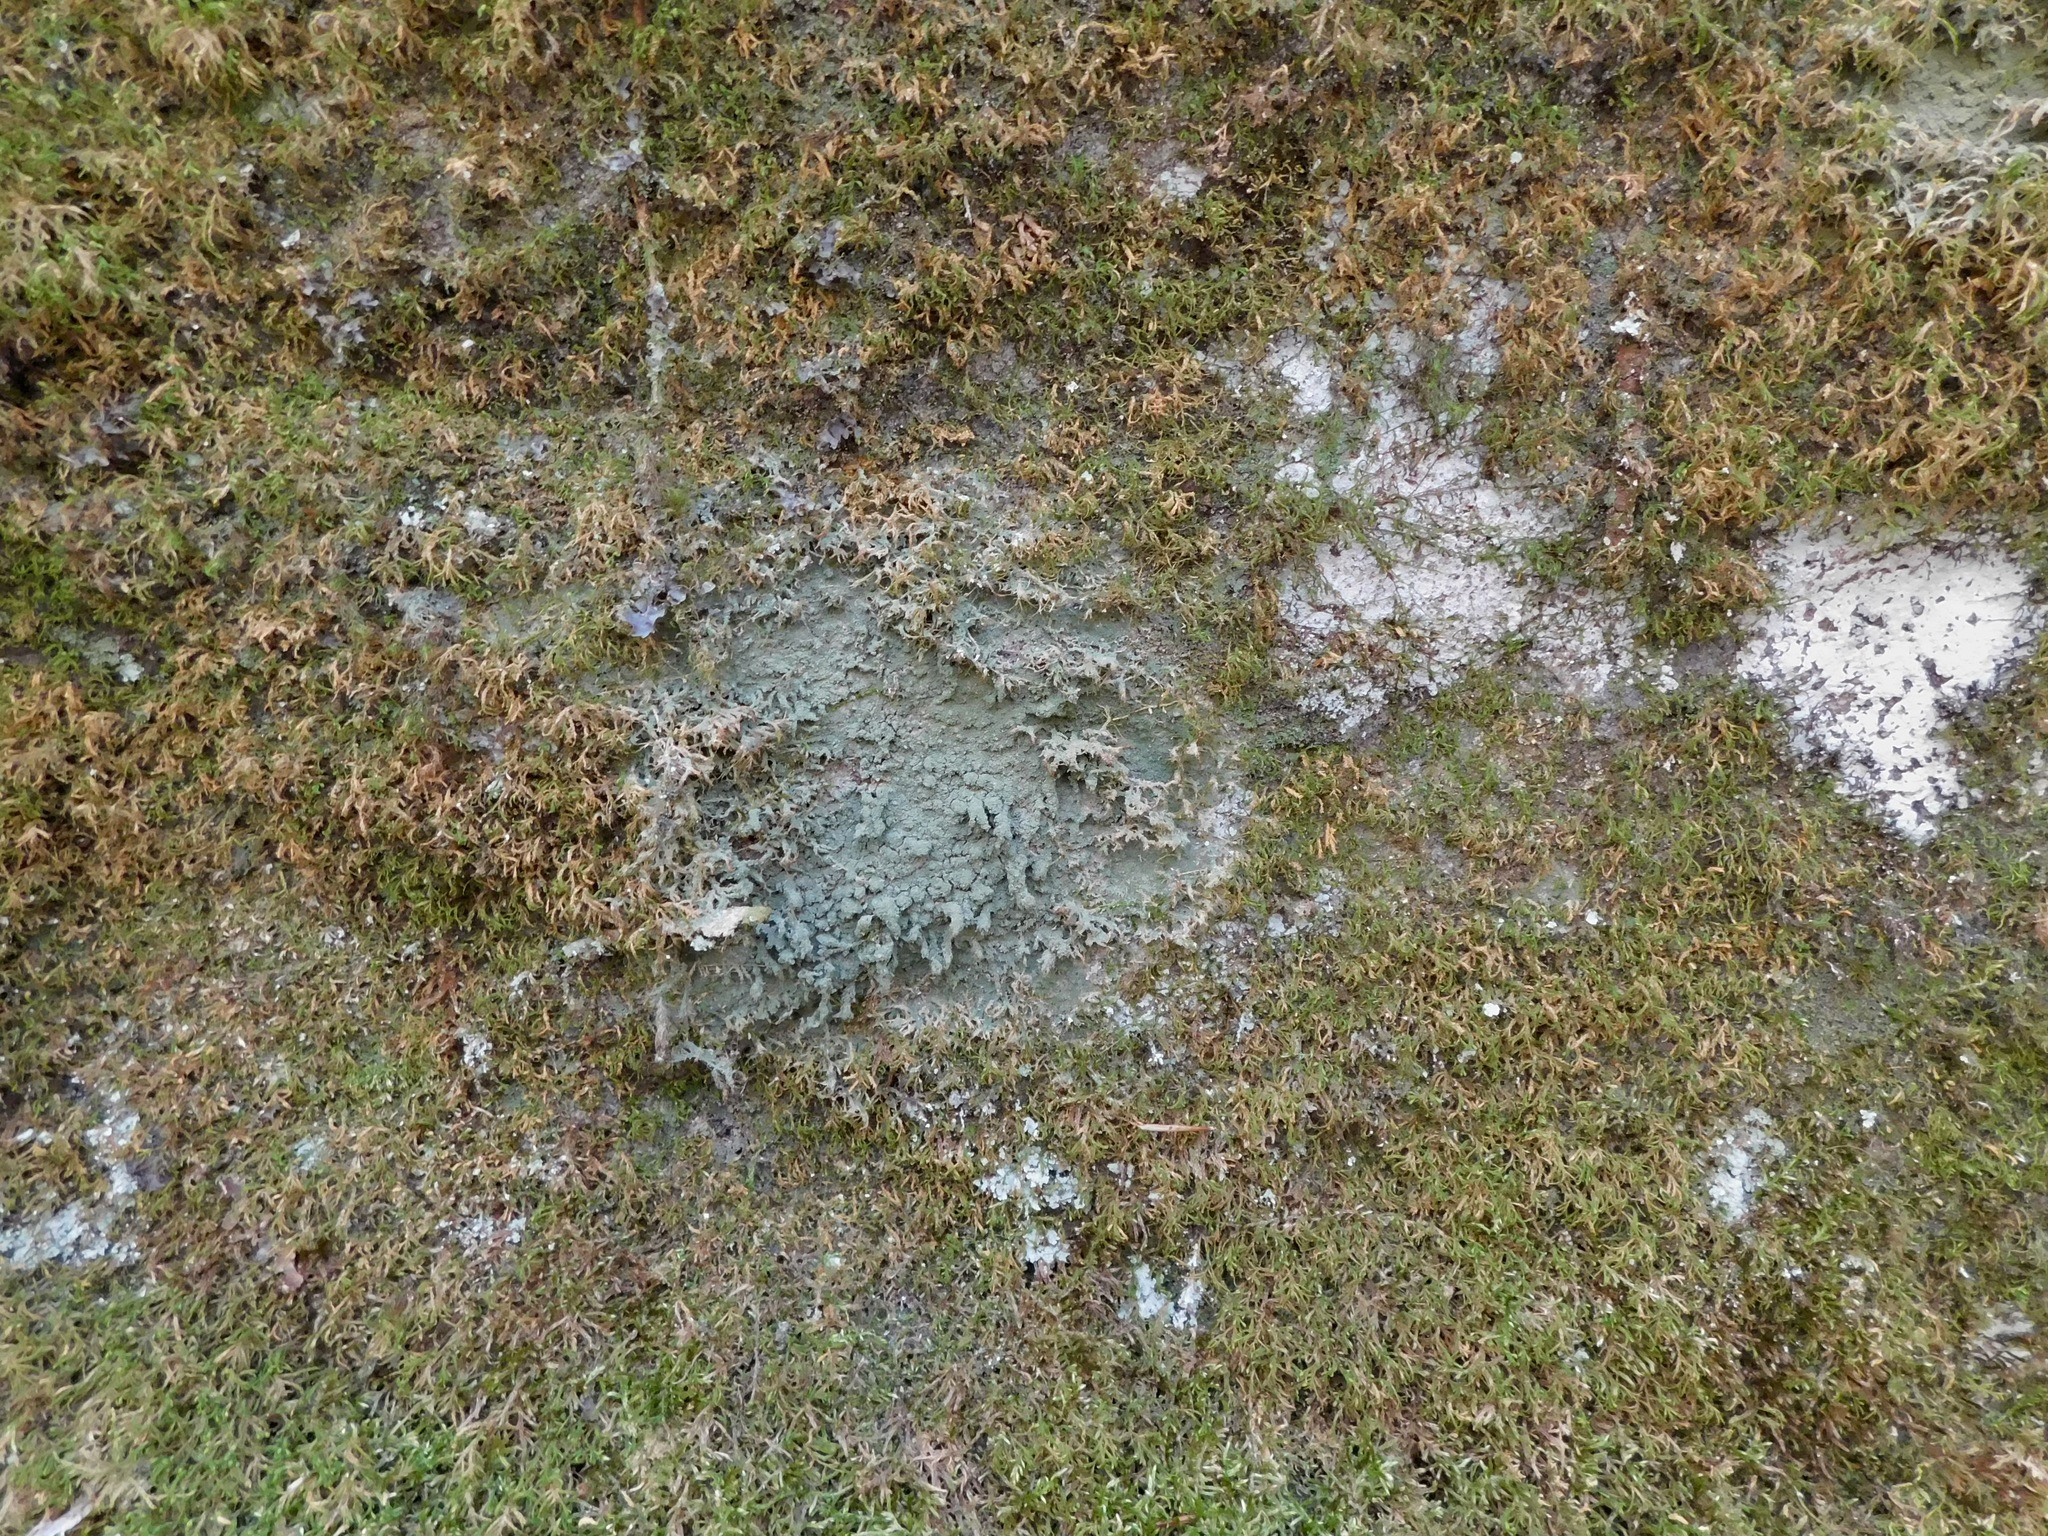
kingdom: Fungi
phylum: Ascomycota
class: Lecanoromycetes
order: Lecanorales
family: Ramalinaceae
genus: Phyllopsora
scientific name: Phyllopsora corallina
